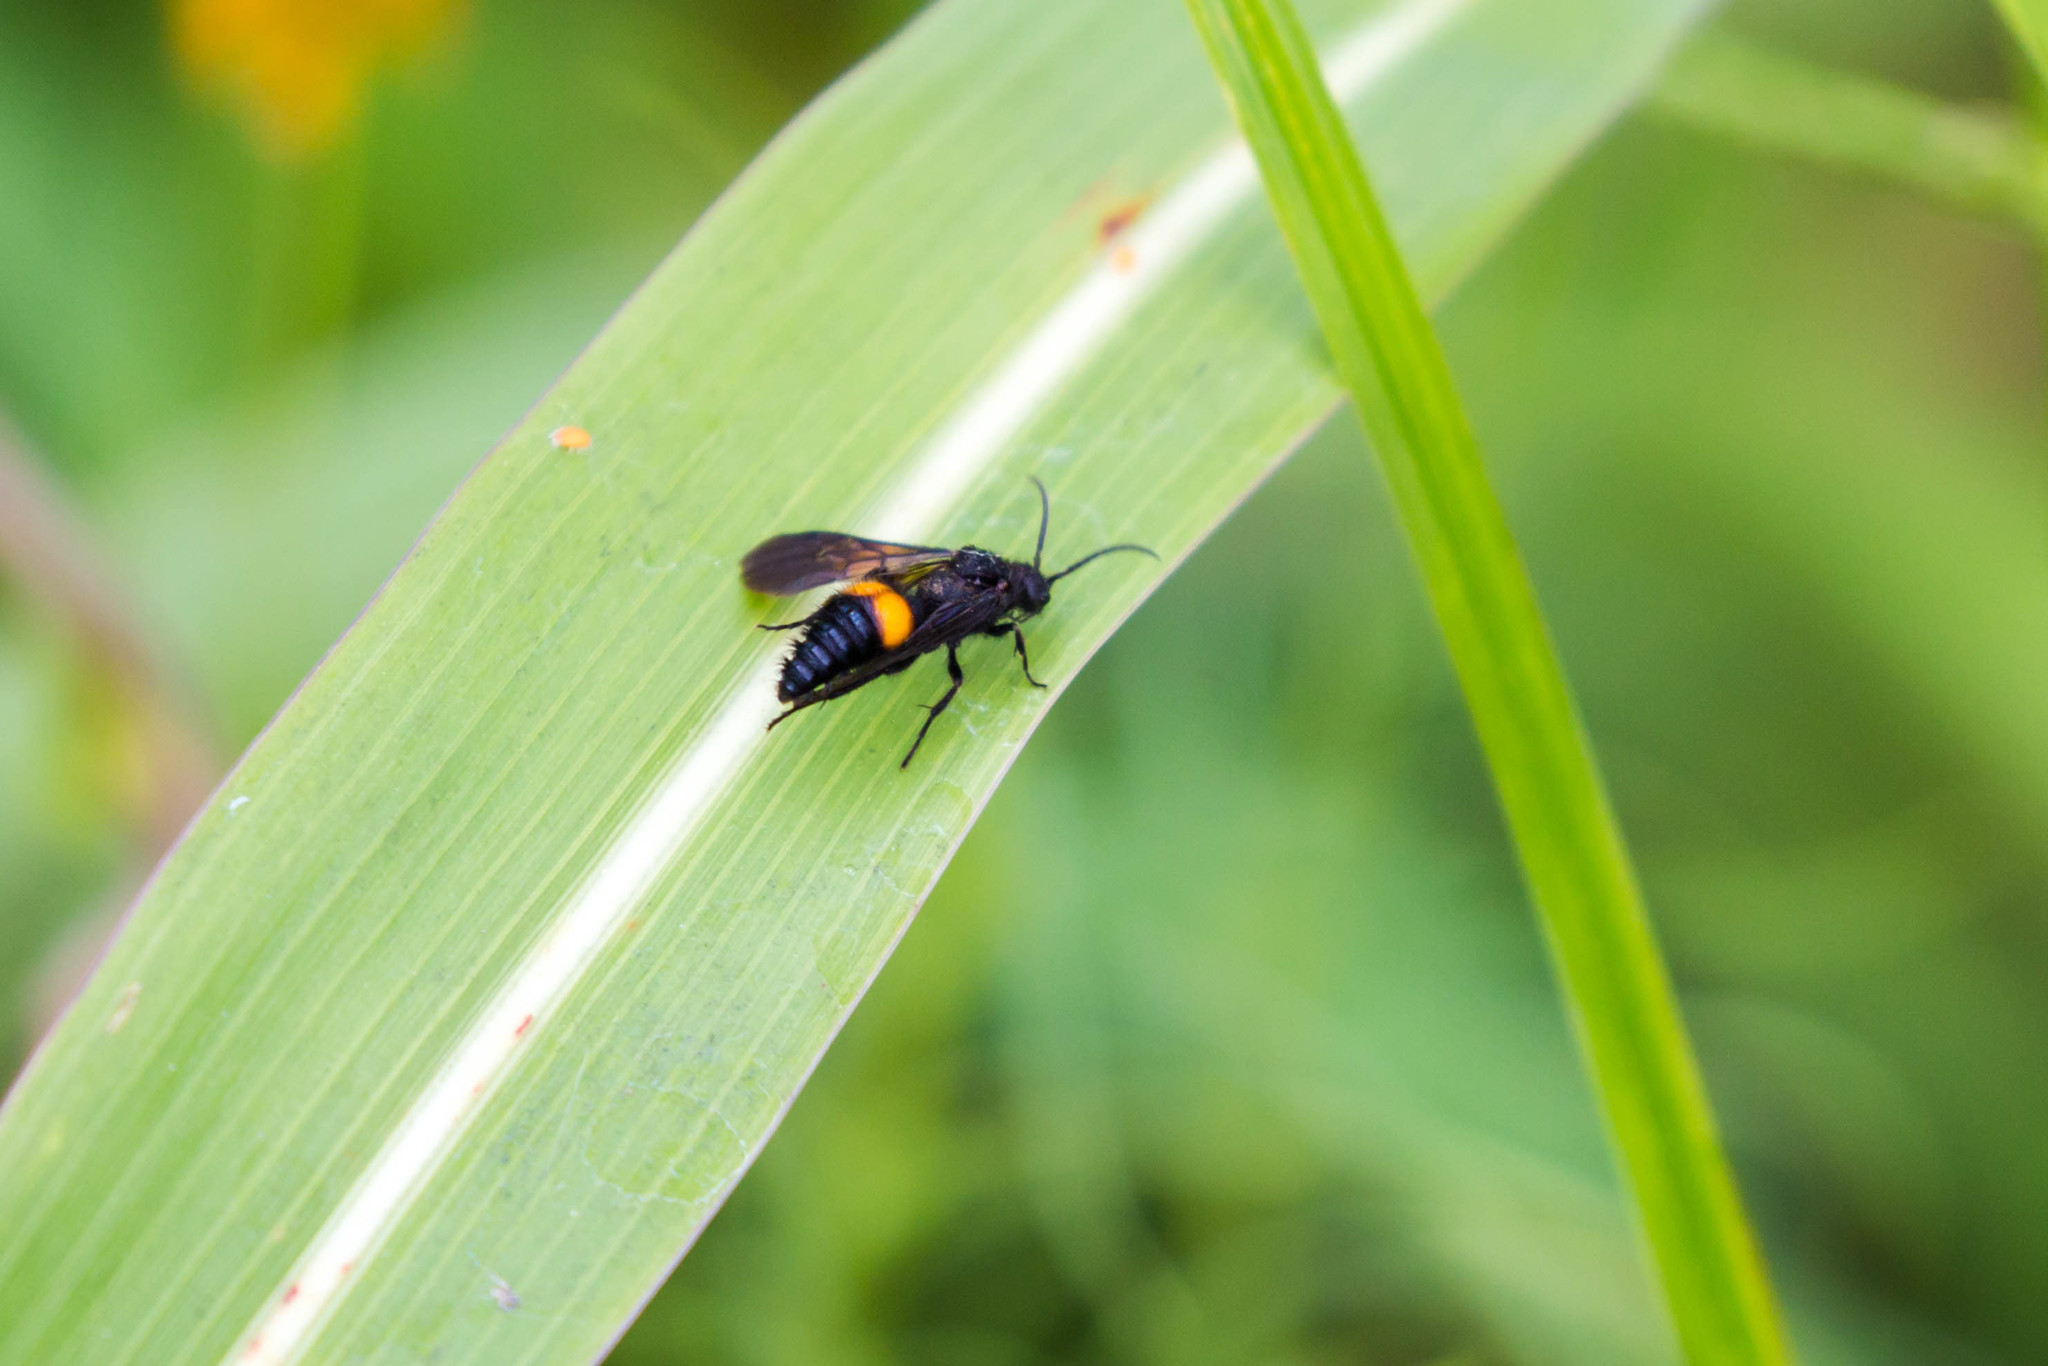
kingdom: Animalia
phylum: Arthropoda
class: Insecta
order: Hymenoptera
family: Mutillidae
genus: Dasymutilla
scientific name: Dasymutilla
